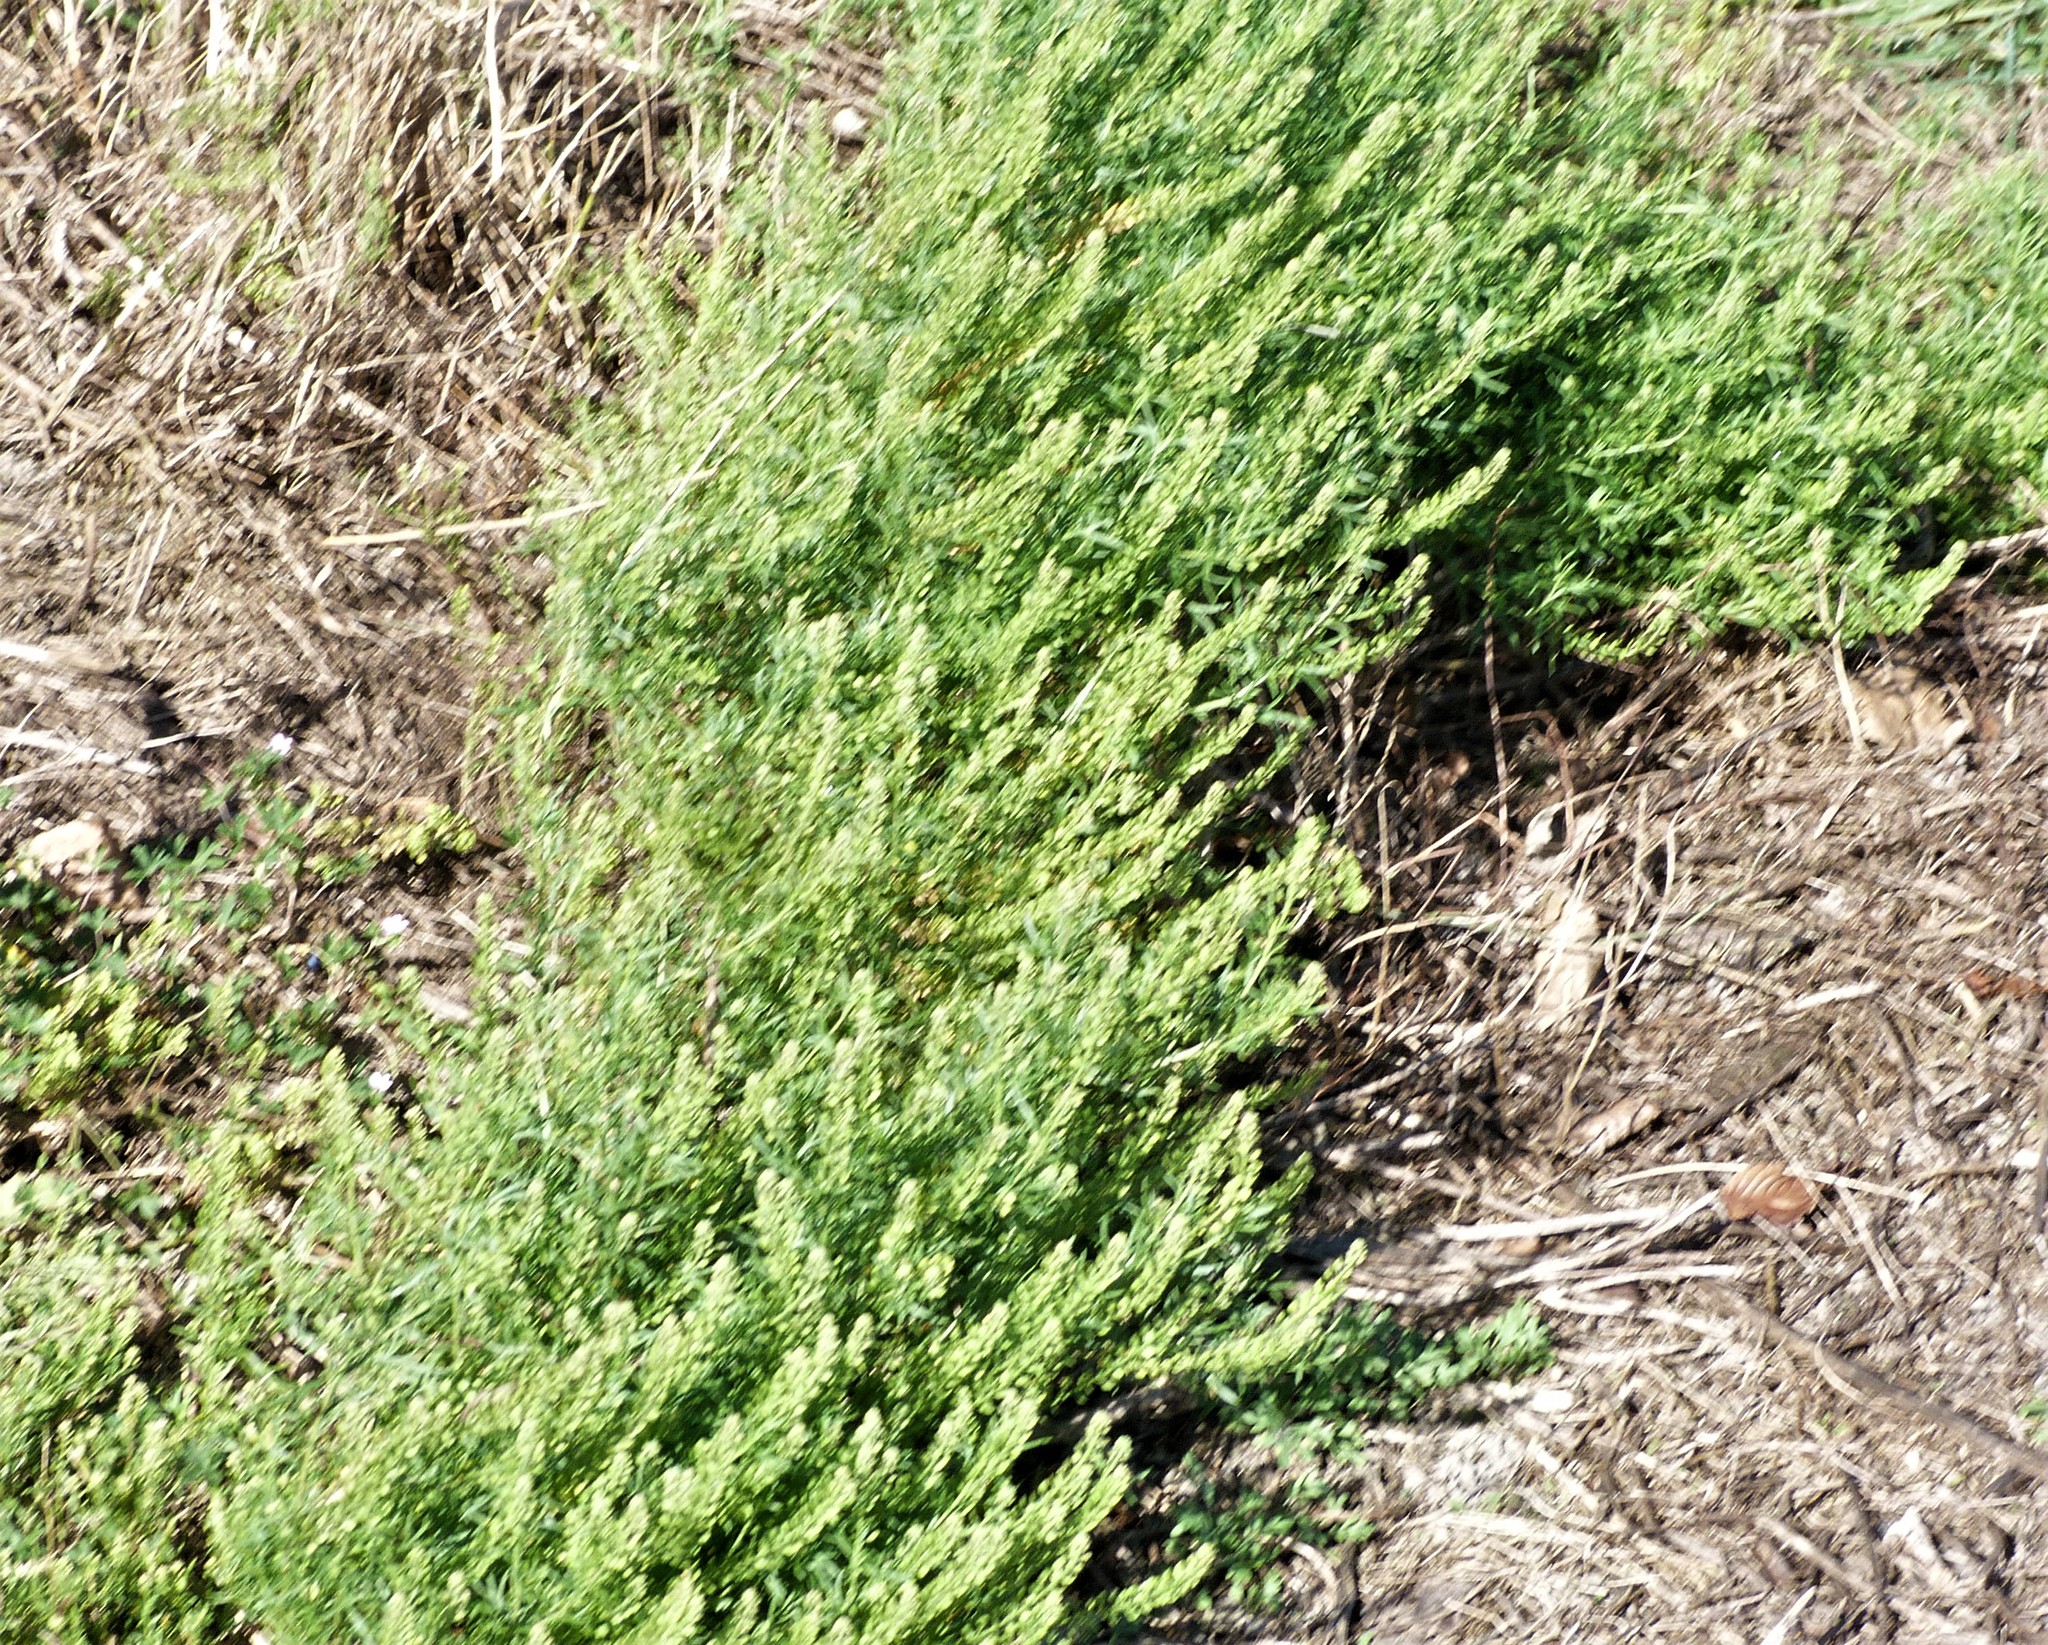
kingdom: Plantae
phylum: Tracheophyta
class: Magnoliopsida
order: Brassicales
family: Brassicaceae
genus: Lepidium
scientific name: Lepidium didymum
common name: Lesser swinecress
